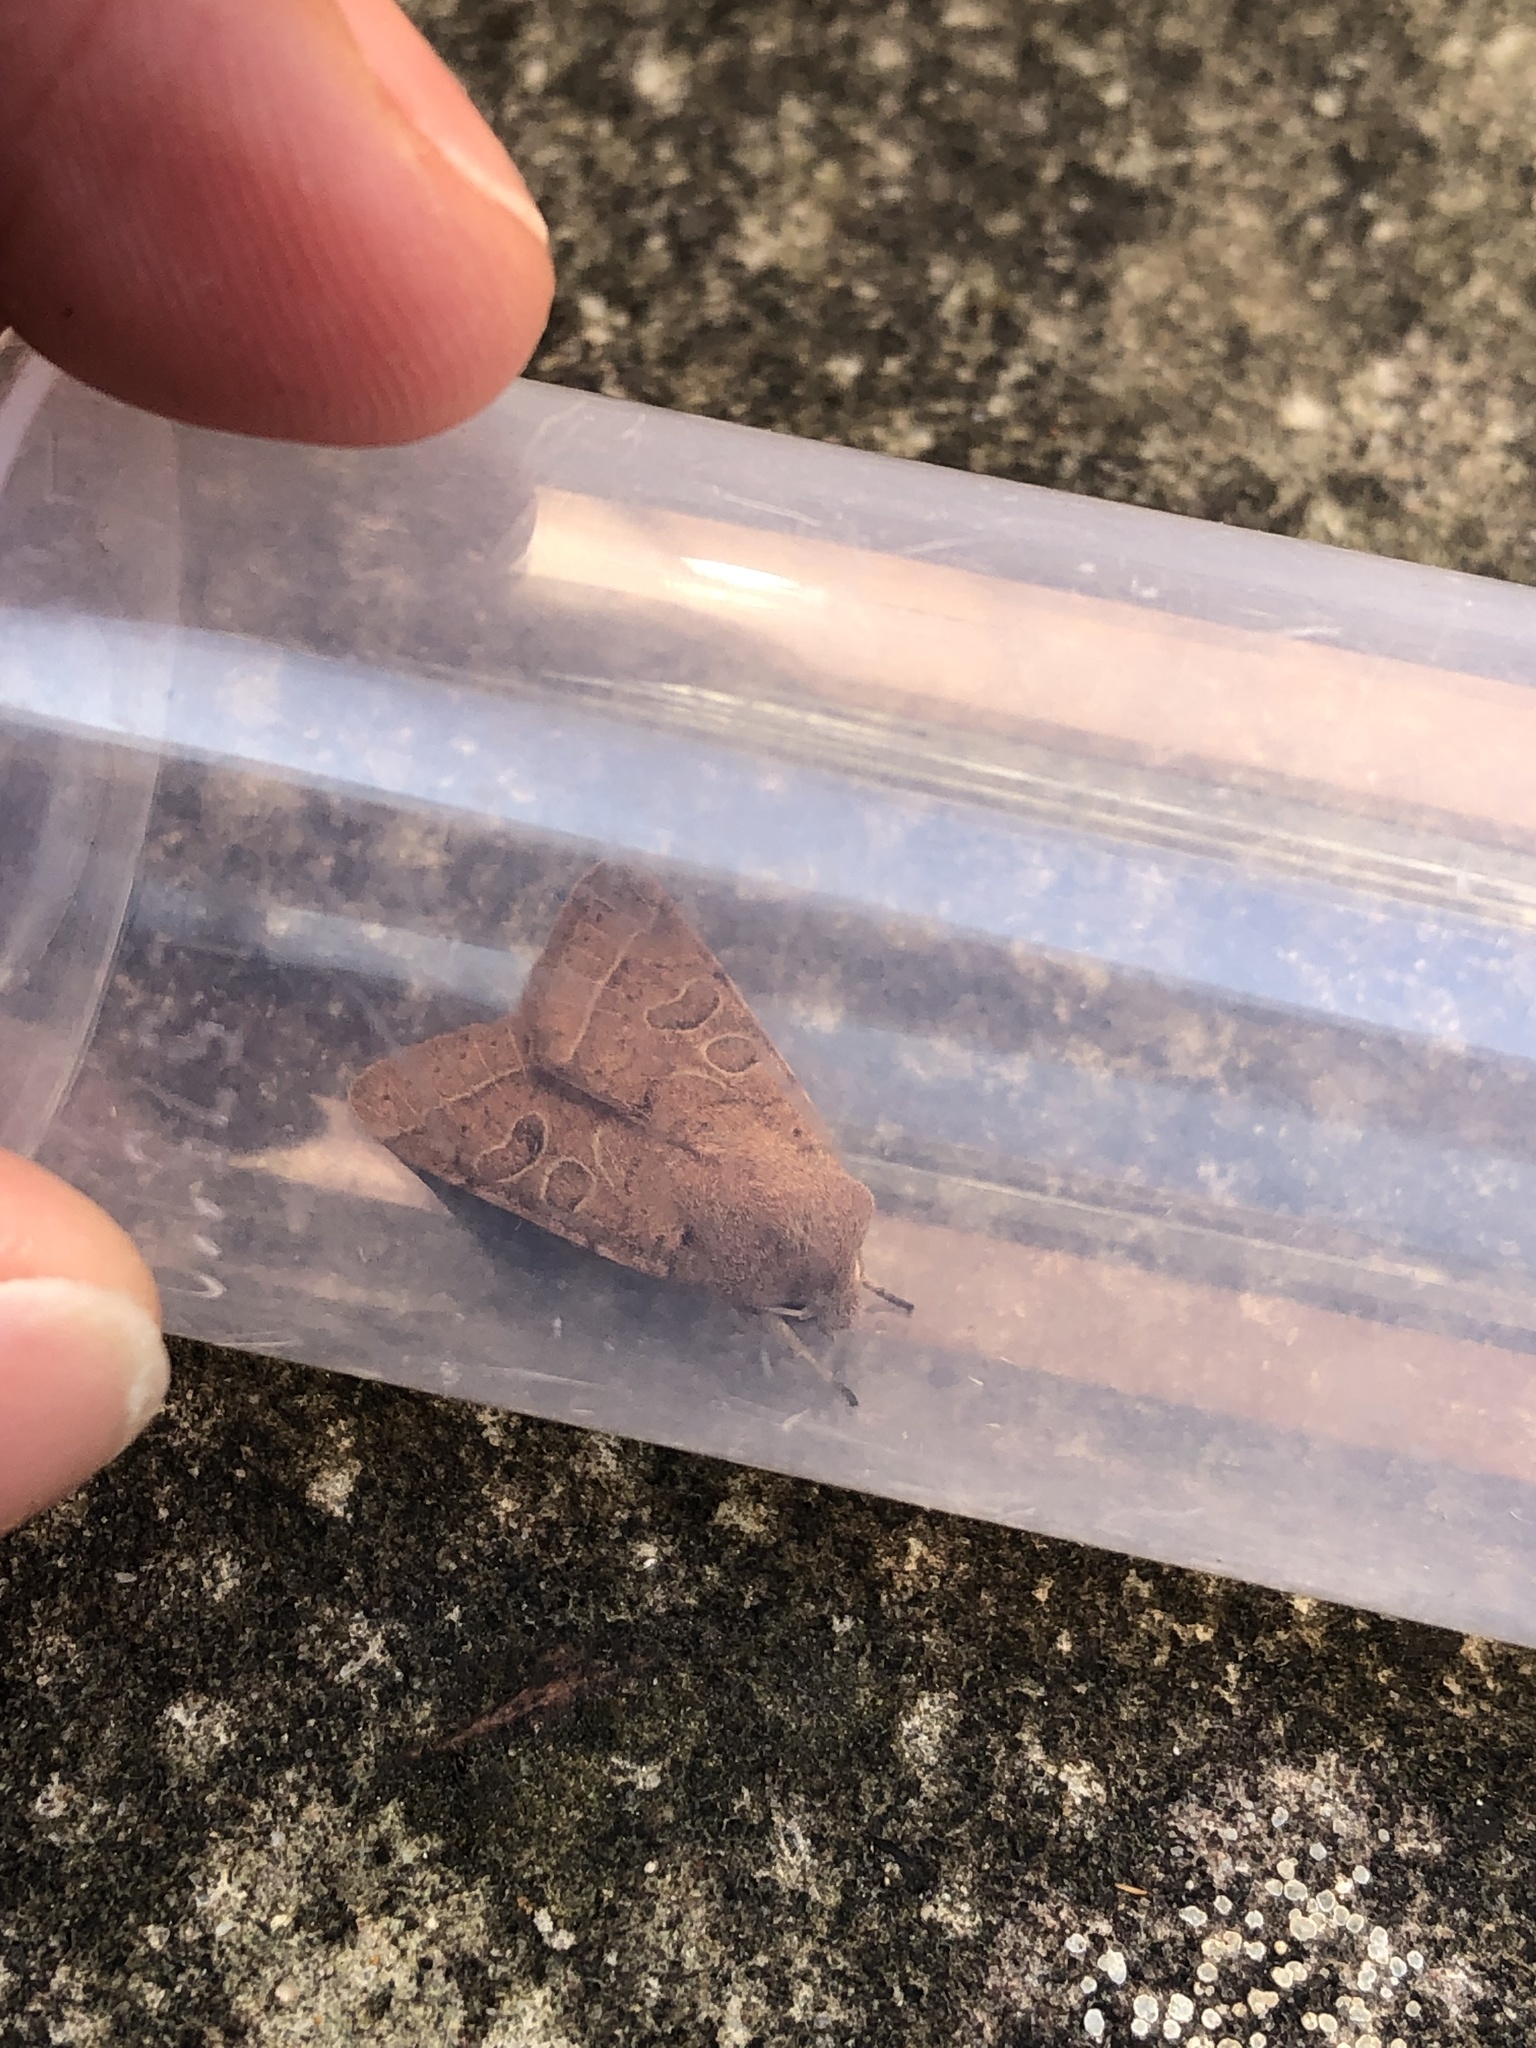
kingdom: Animalia
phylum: Arthropoda
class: Insecta
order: Lepidoptera
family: Noctuidae
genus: Orthosia
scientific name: Orthosia cerasi
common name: Common quaker
